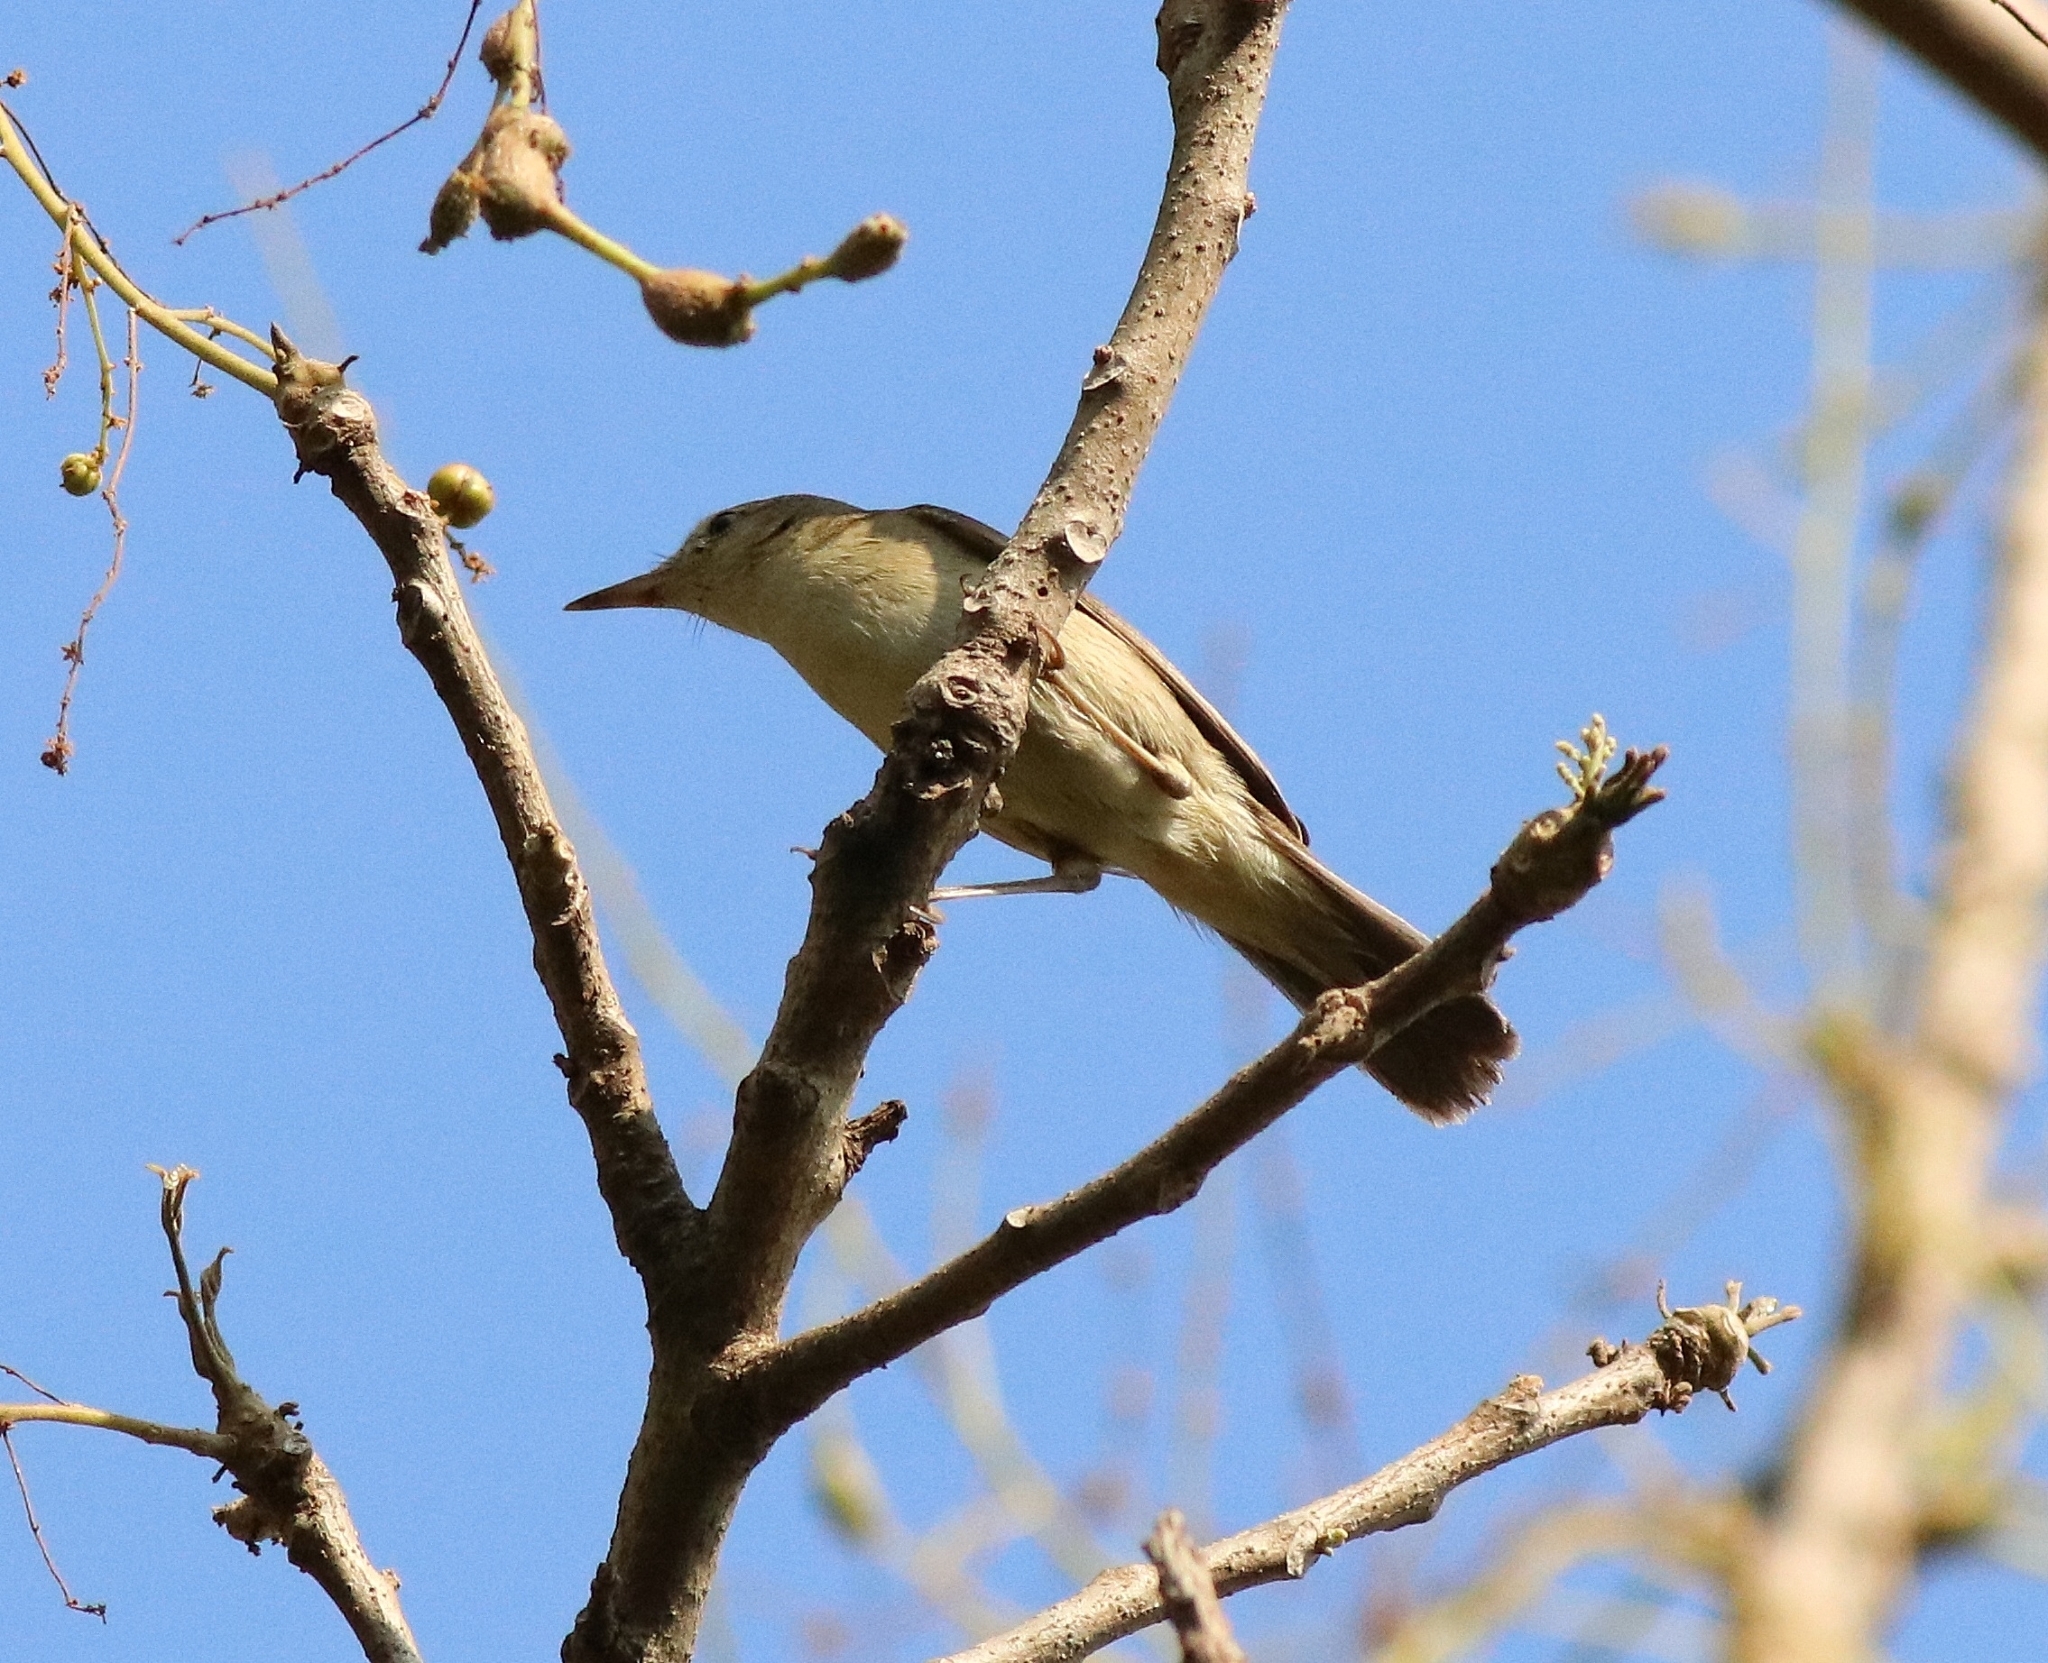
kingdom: Animalia
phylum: Chordata
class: Aves
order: Passeriformes
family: Acrocephalidae
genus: Iduna
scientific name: Iduna rama
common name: Sykes's warbler
